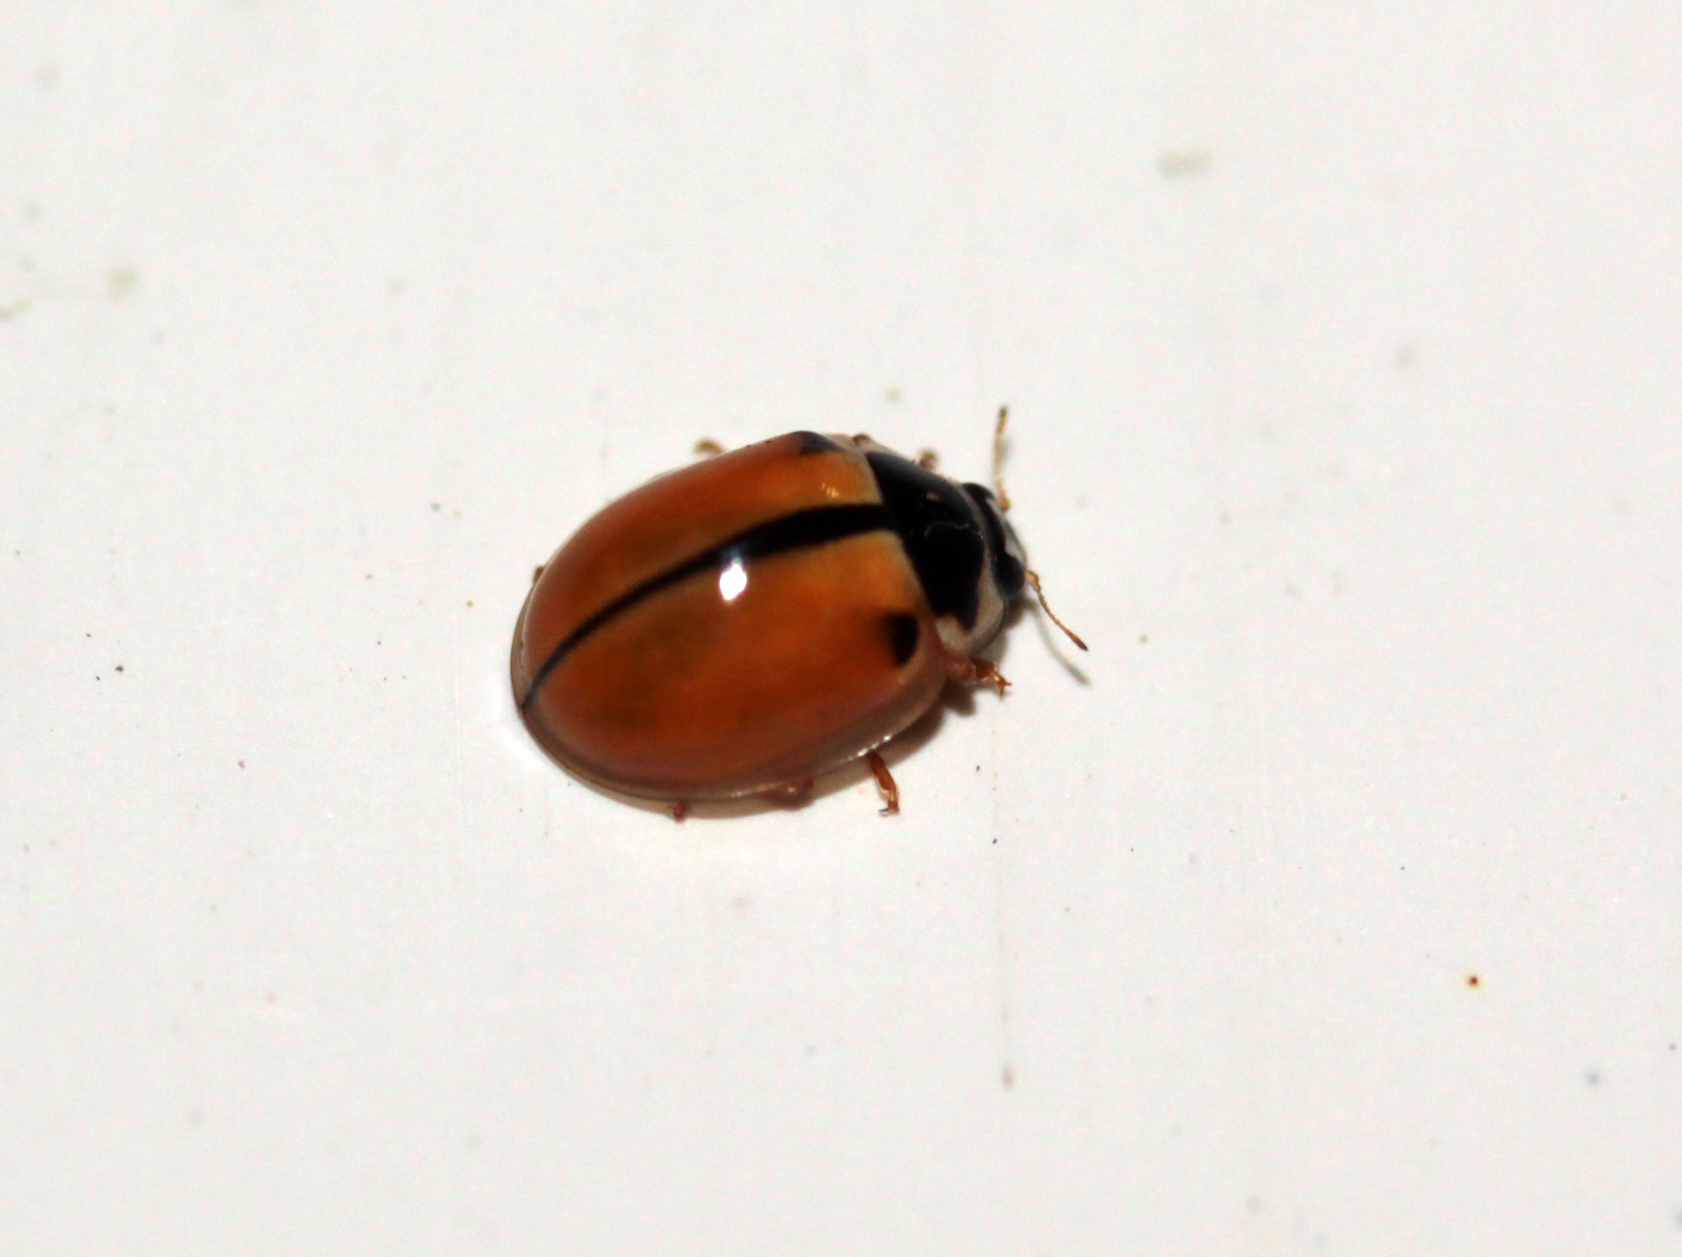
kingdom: Animalia
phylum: Arthropoda
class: Insecta
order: Coleoptera
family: Coccinellidae
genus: Propylea
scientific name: Propylea japonica
